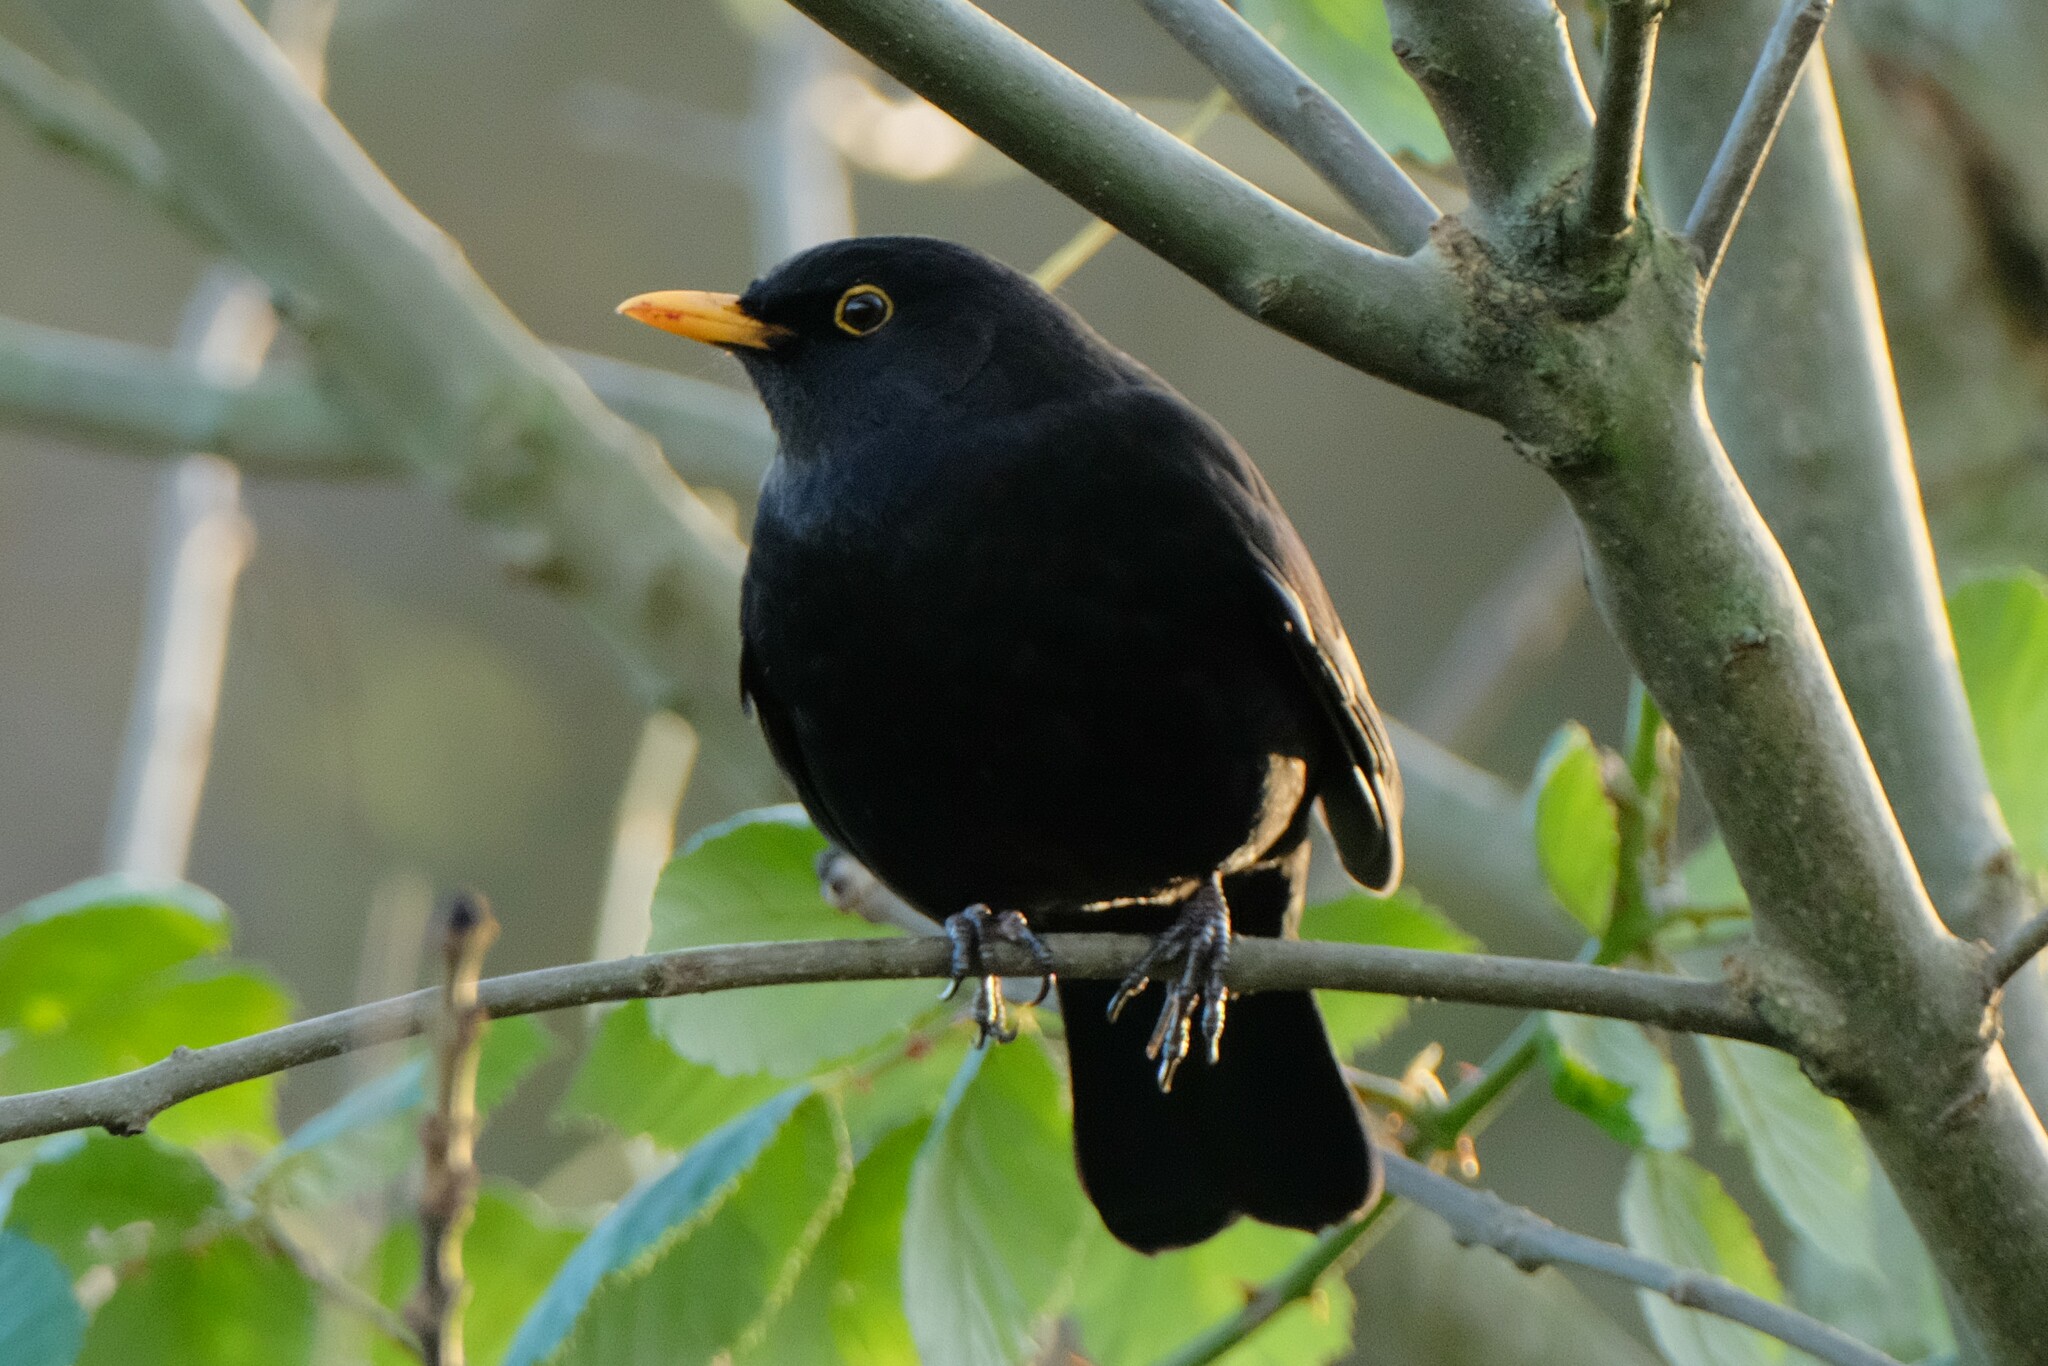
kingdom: Animalia
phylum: Chordata
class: Aves
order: Passeriformes
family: Turdidae
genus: Turdus
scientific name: Turdus merula
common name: Common blackbird
